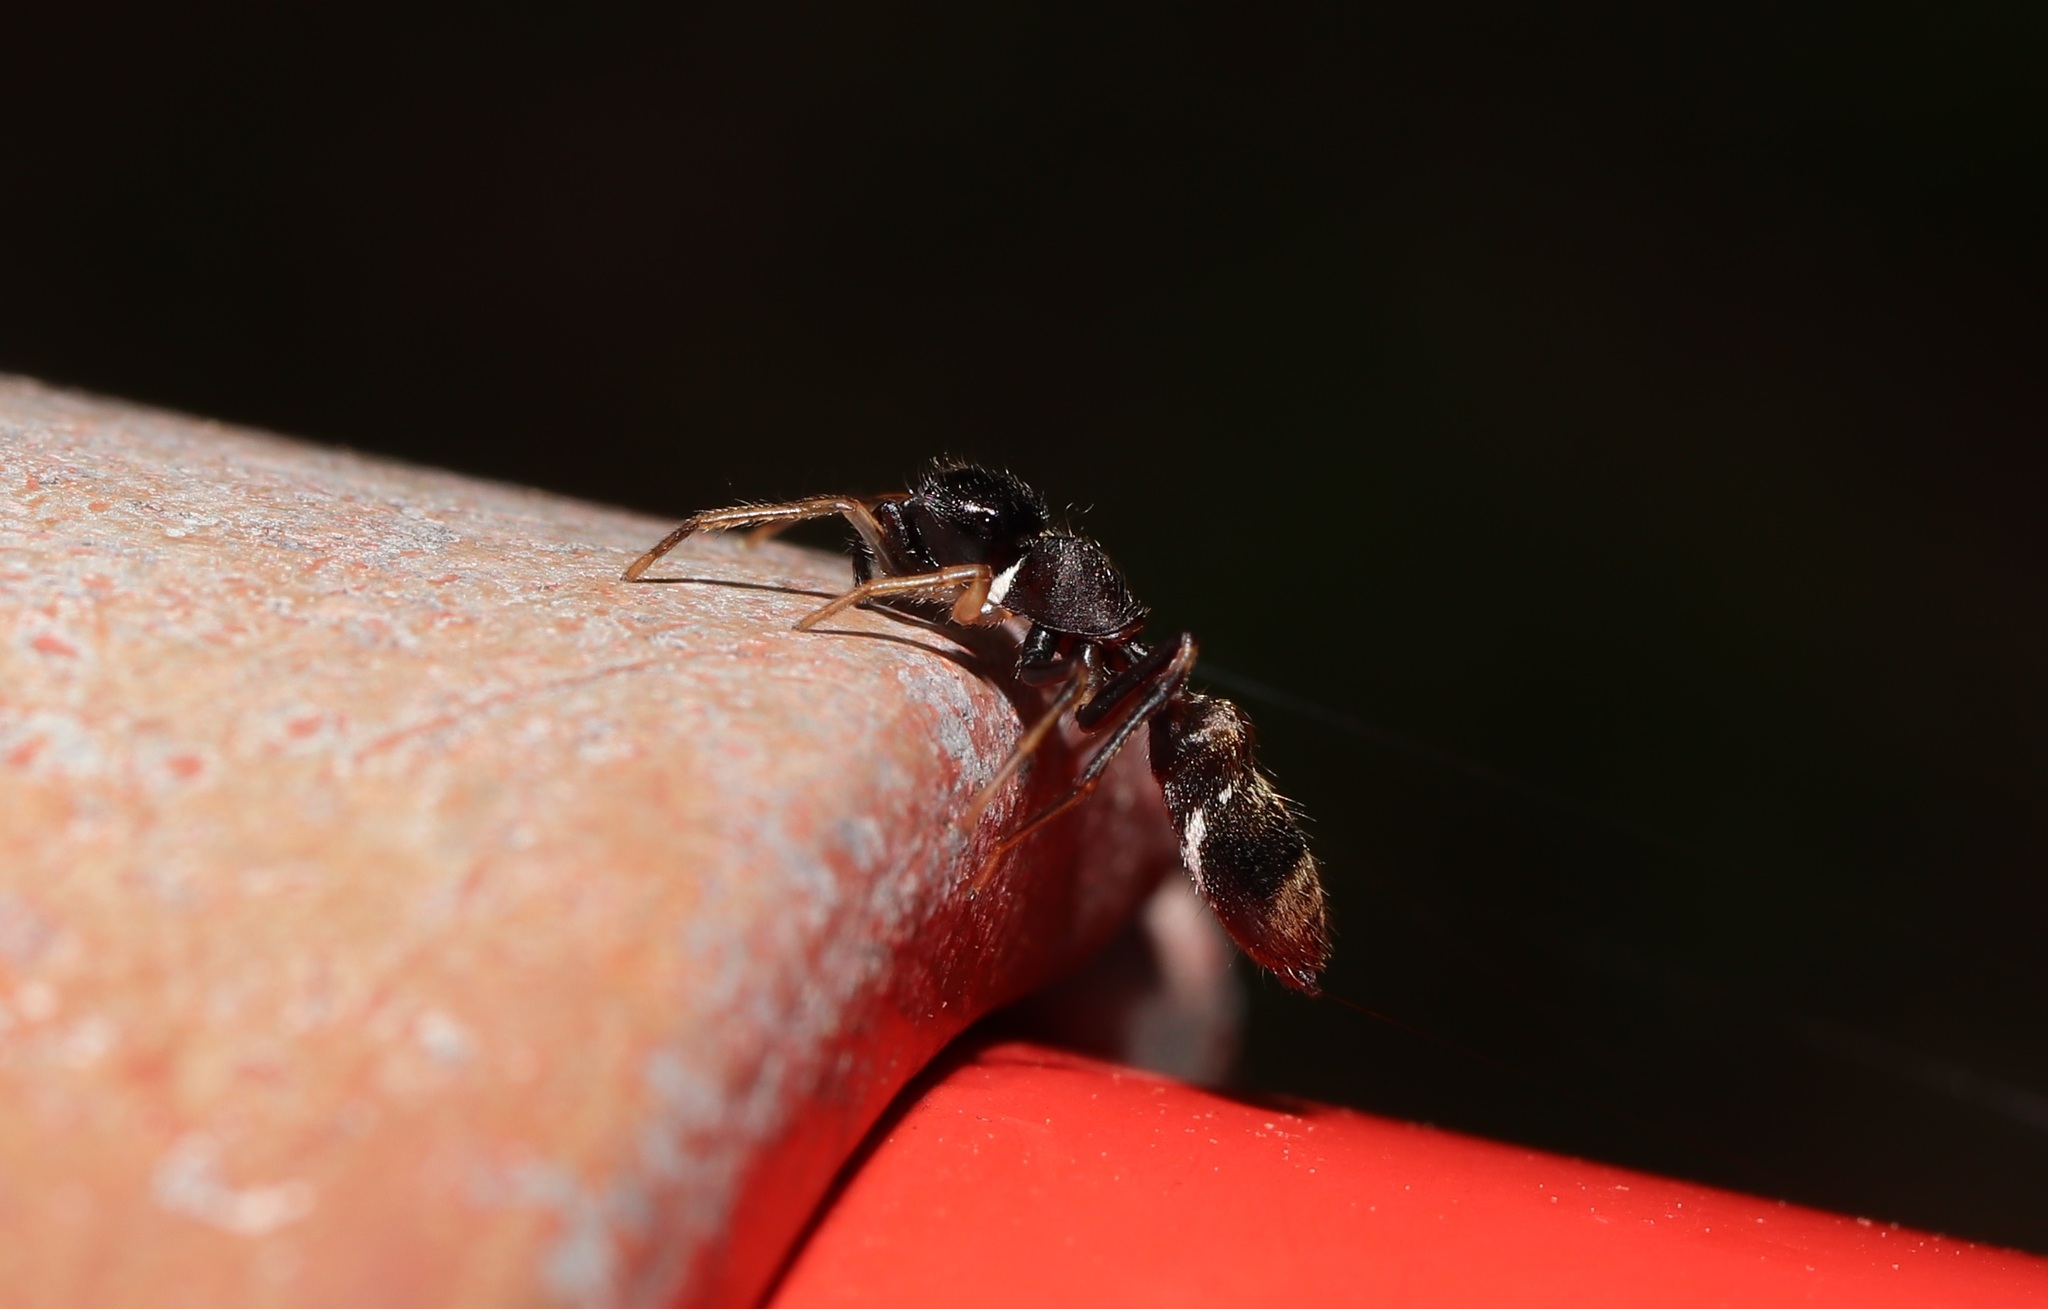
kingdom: Animalia
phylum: Arthropoda
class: Arachnida
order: Araneae
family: Salticidae
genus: Myrmarachne
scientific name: Myrmarachne elongata
